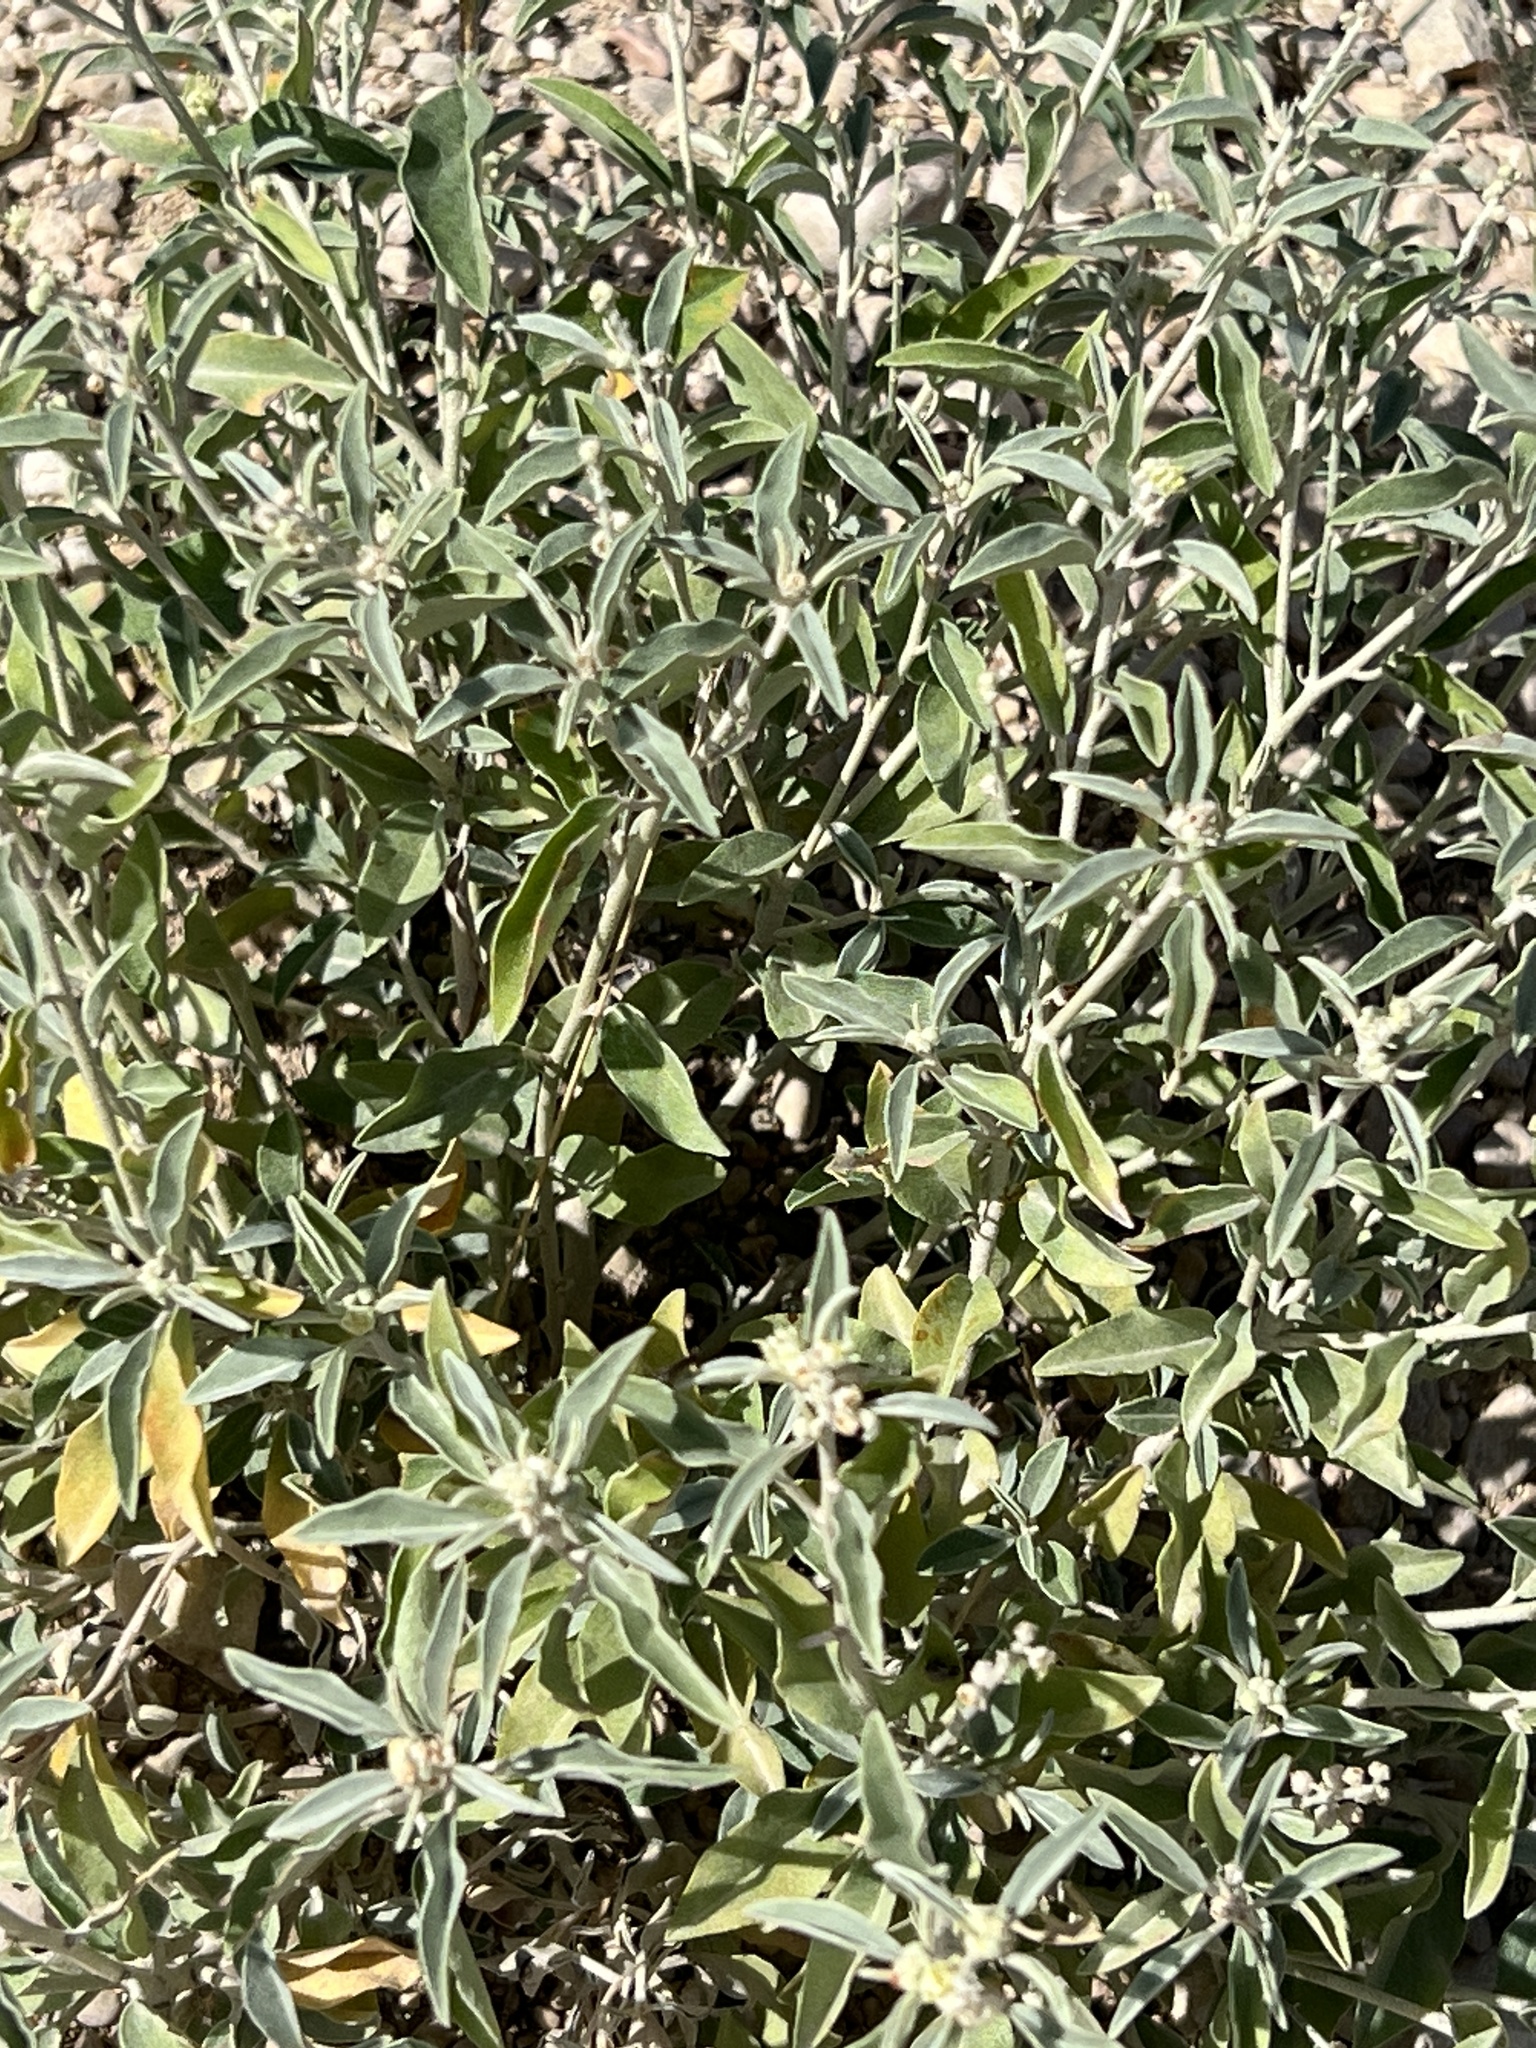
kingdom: Plantae
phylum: Tracheophyta
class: Magnoliopsida
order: Malpighiales
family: Euphorbiaceae
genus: Croton
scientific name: Croton dioicus
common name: Grassland croton
